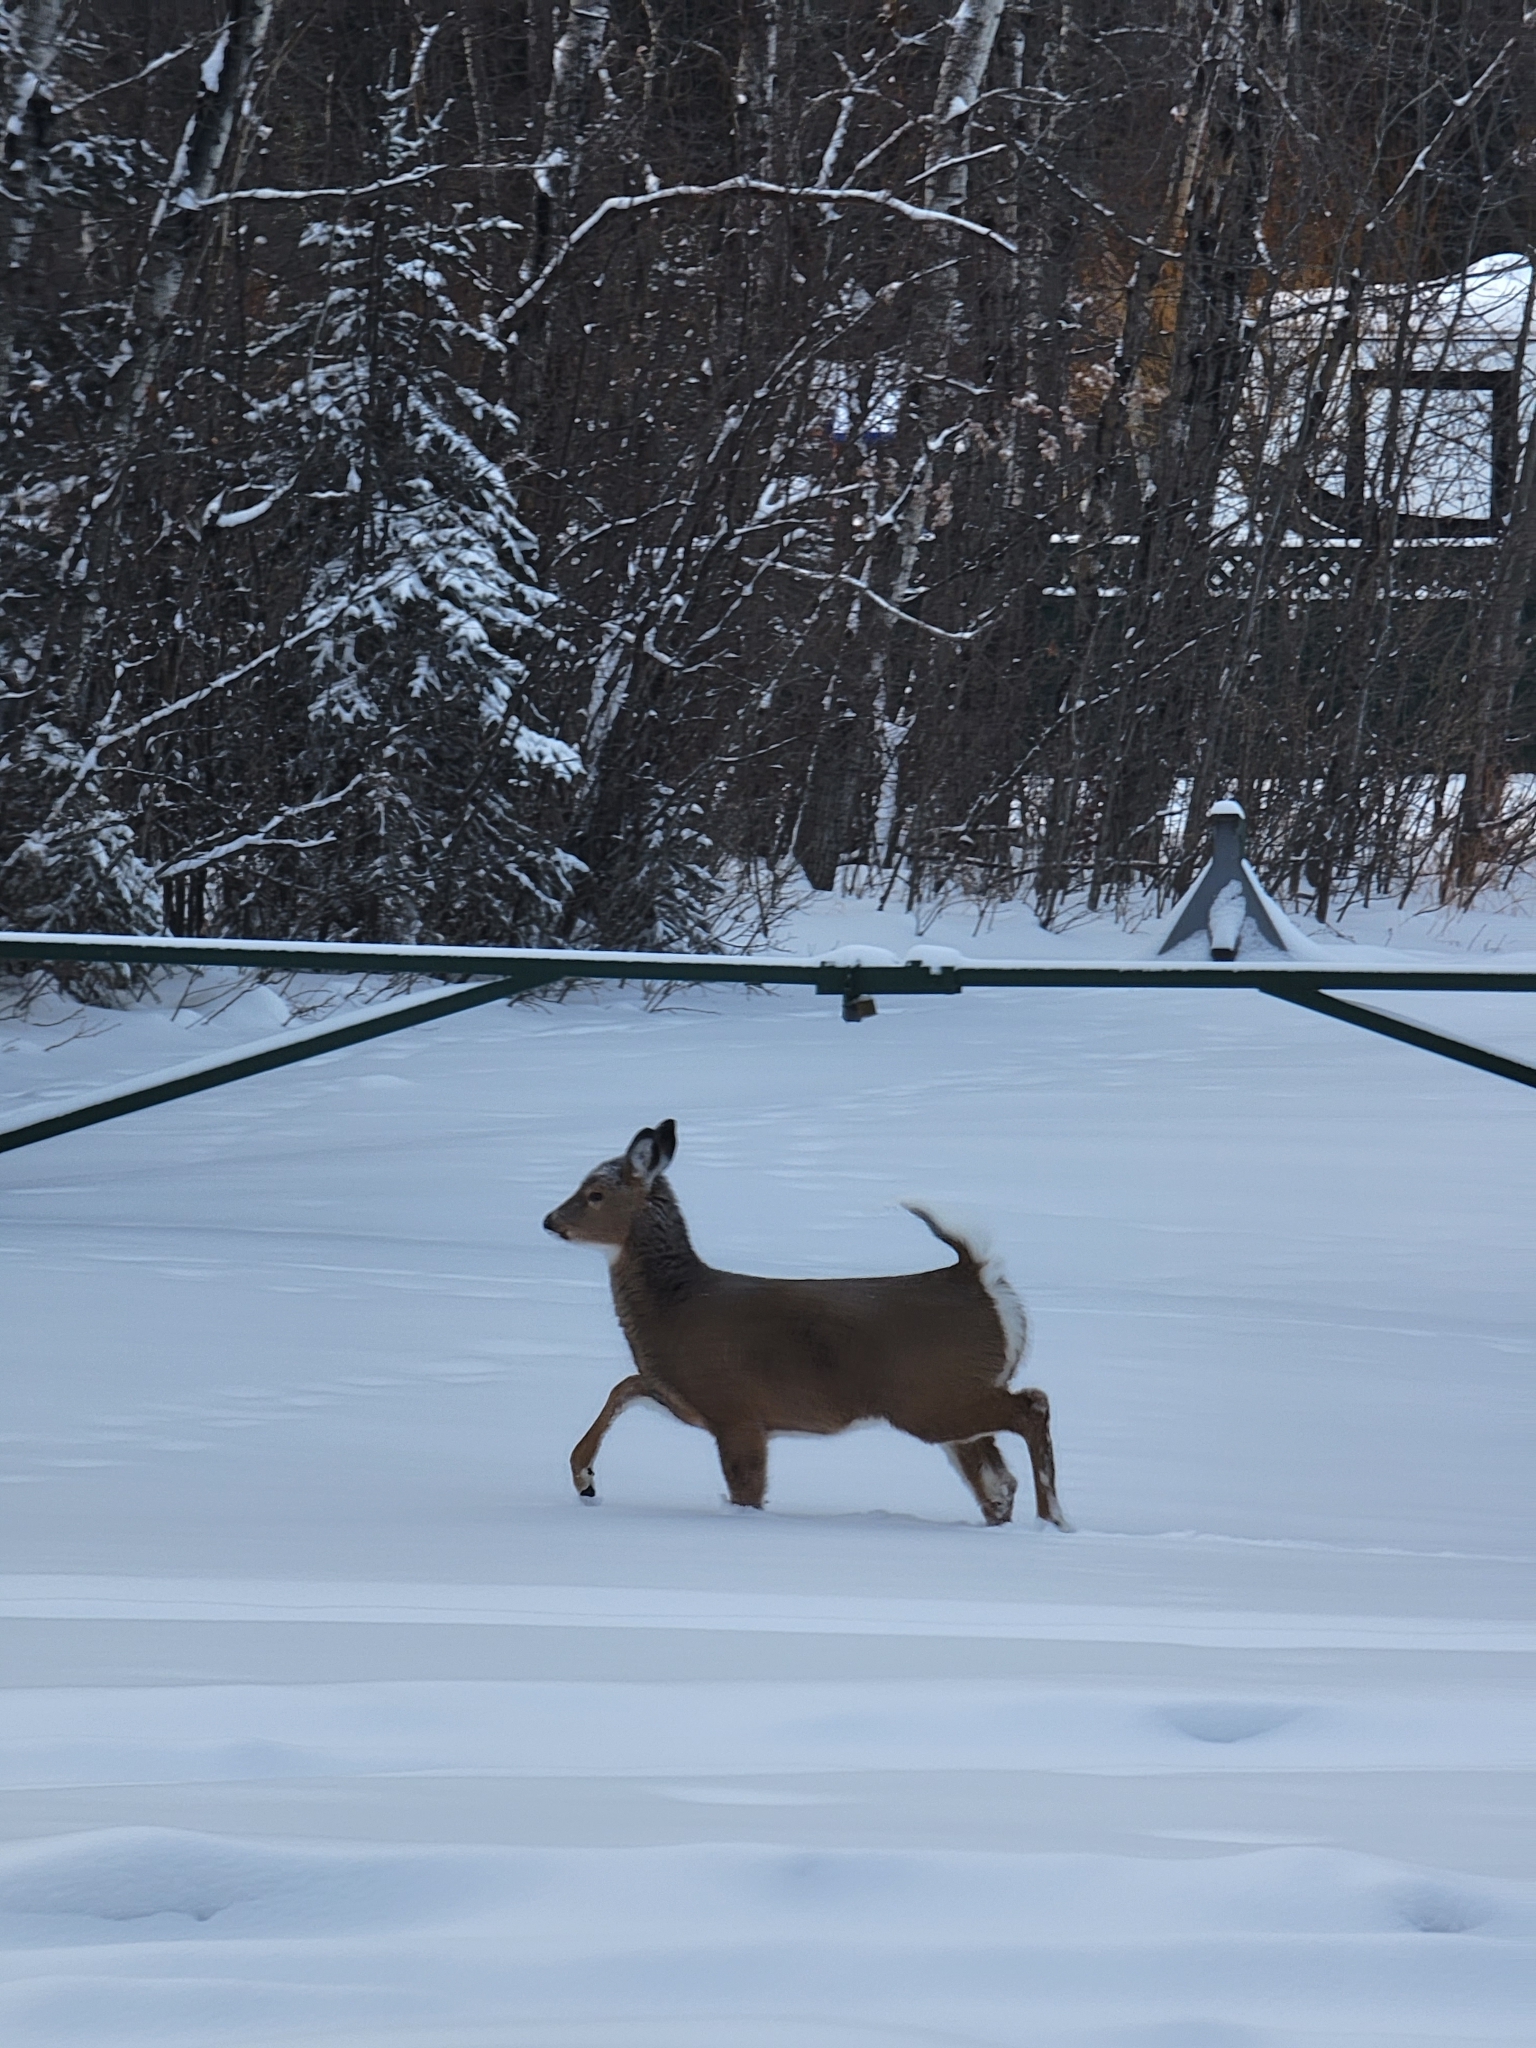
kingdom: Animalia
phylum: Chordata
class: Mammalia
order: Artiodactyla
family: Cervidae
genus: Odocoileus
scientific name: Odocoileus virginianus
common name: White-tailed deer
